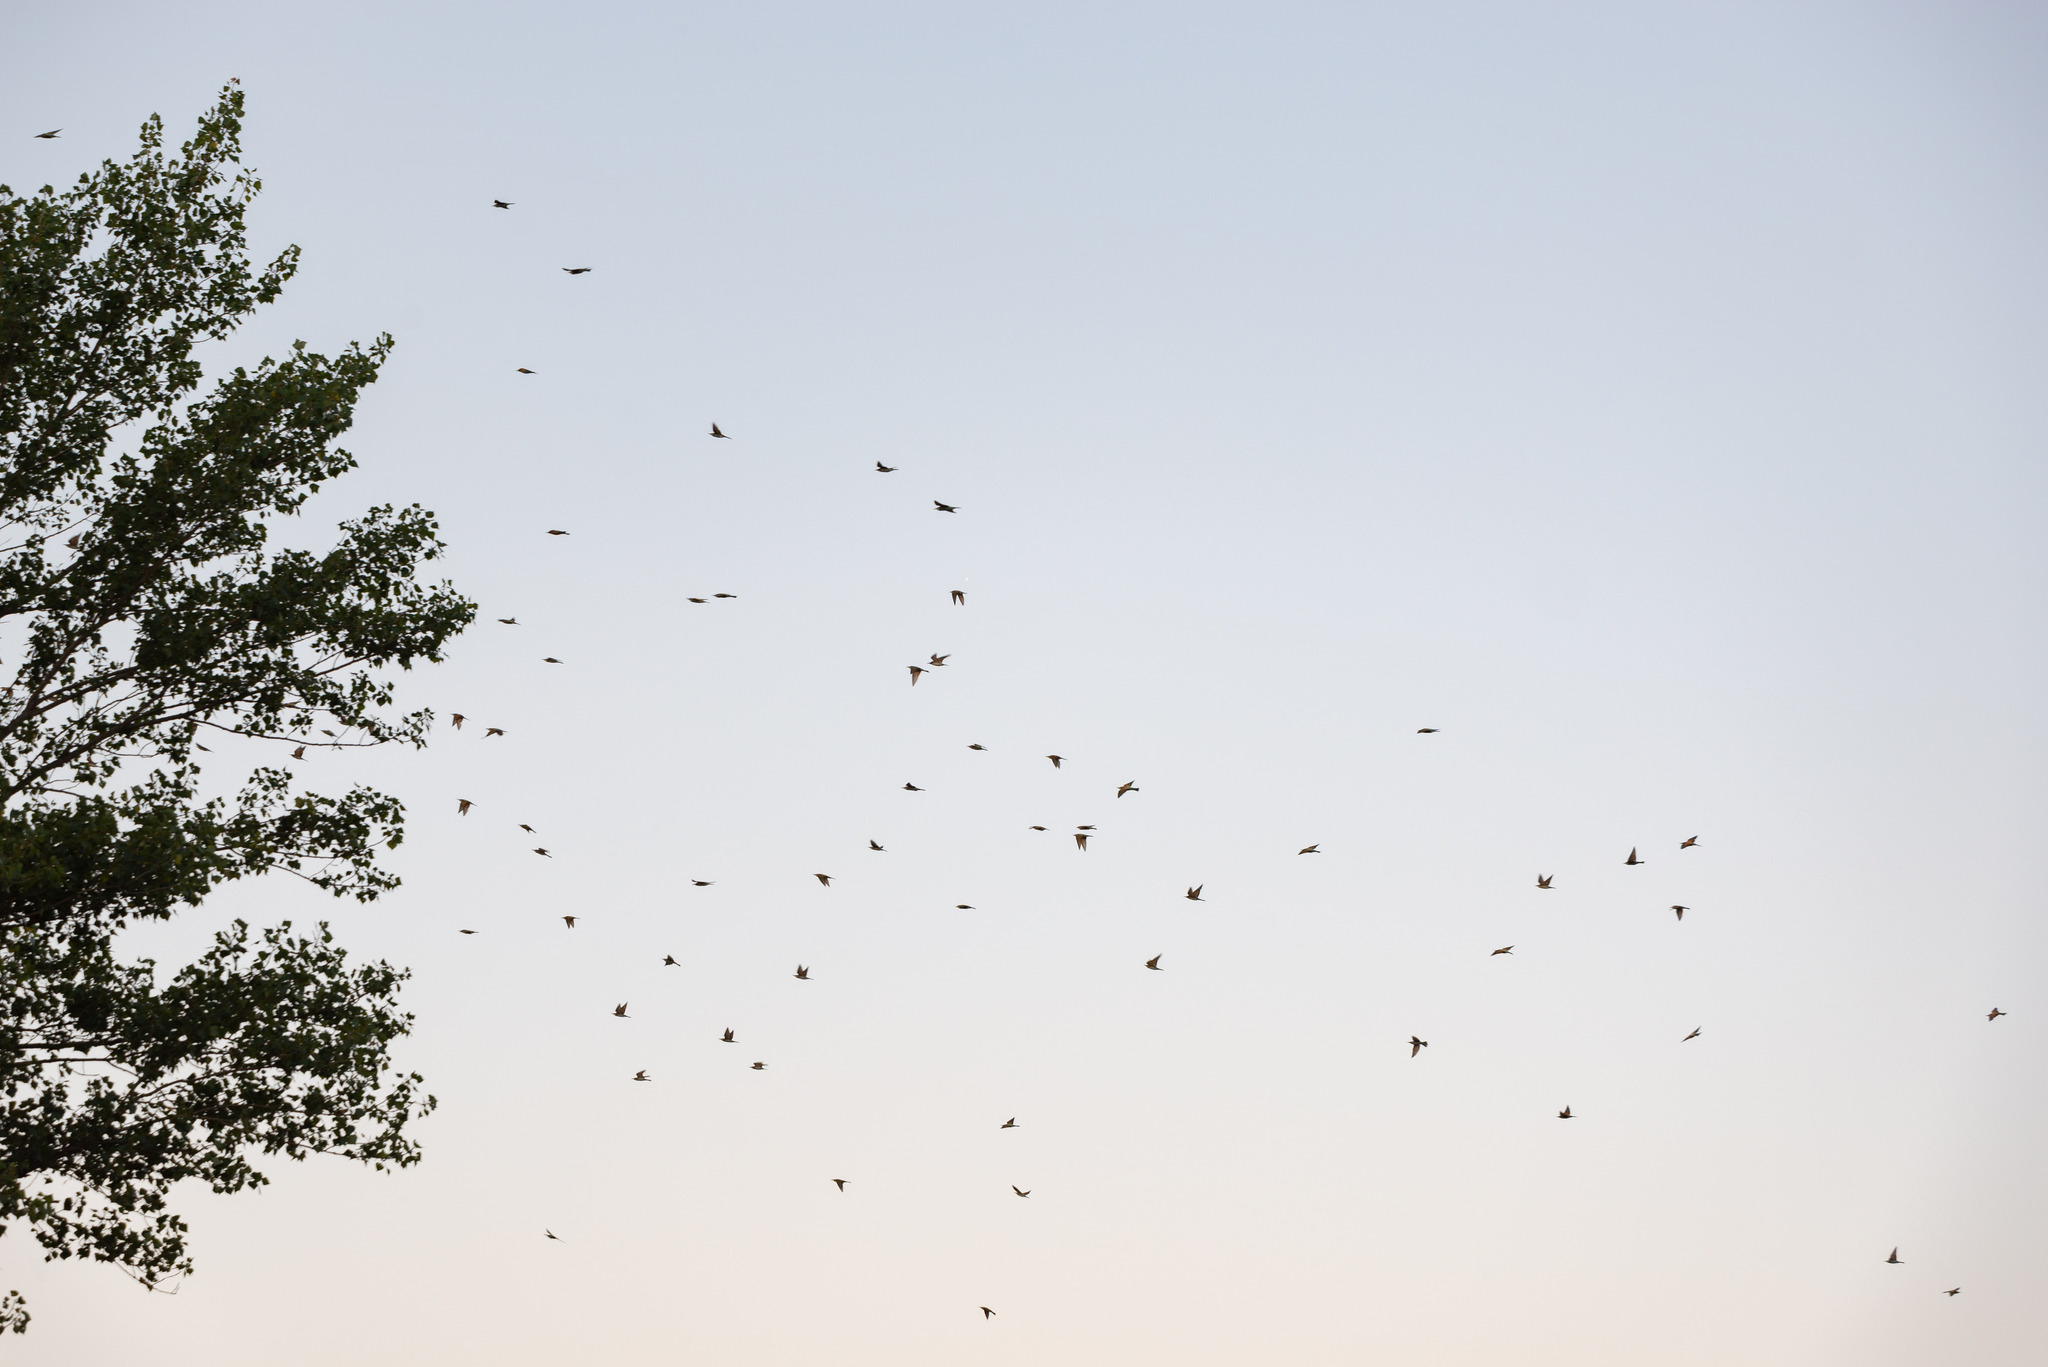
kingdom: Animalia
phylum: Chordata
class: Aves
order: Coraciiformes
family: Meropidae
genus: Merops
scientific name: Merops apiaster
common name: European bee-eater
